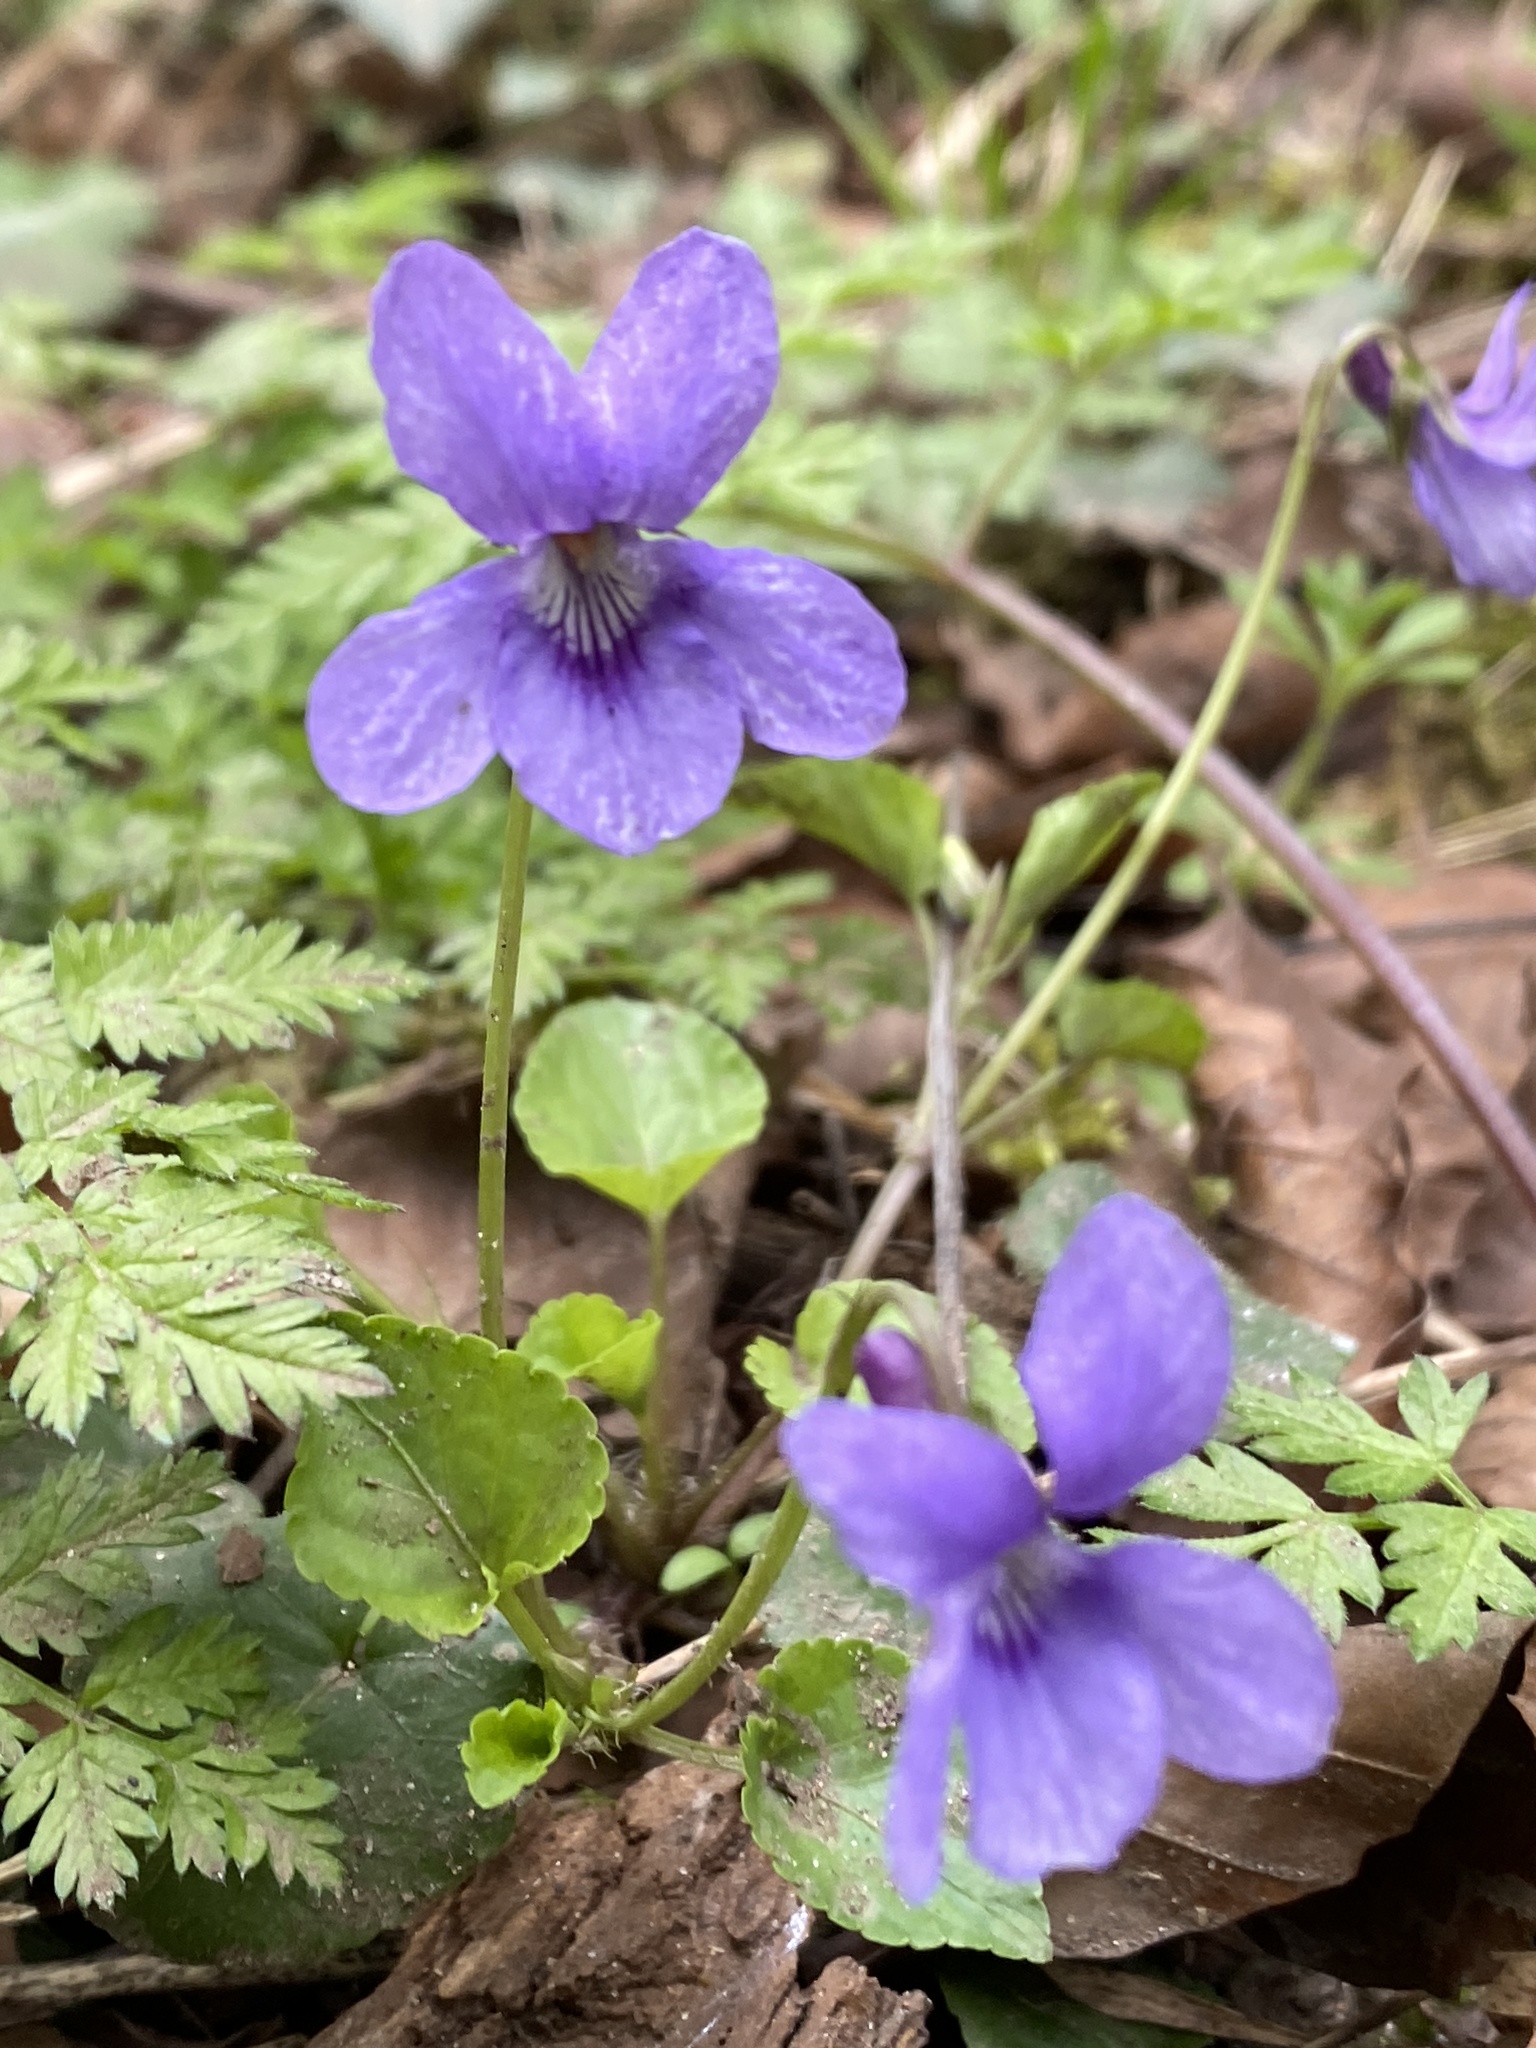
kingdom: Plantae
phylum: Tracheophyta
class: Magnoliopsida
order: Malpighiales
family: Violaceae
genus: Viola
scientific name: Viola reichenbachiana
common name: Early dog-violet
